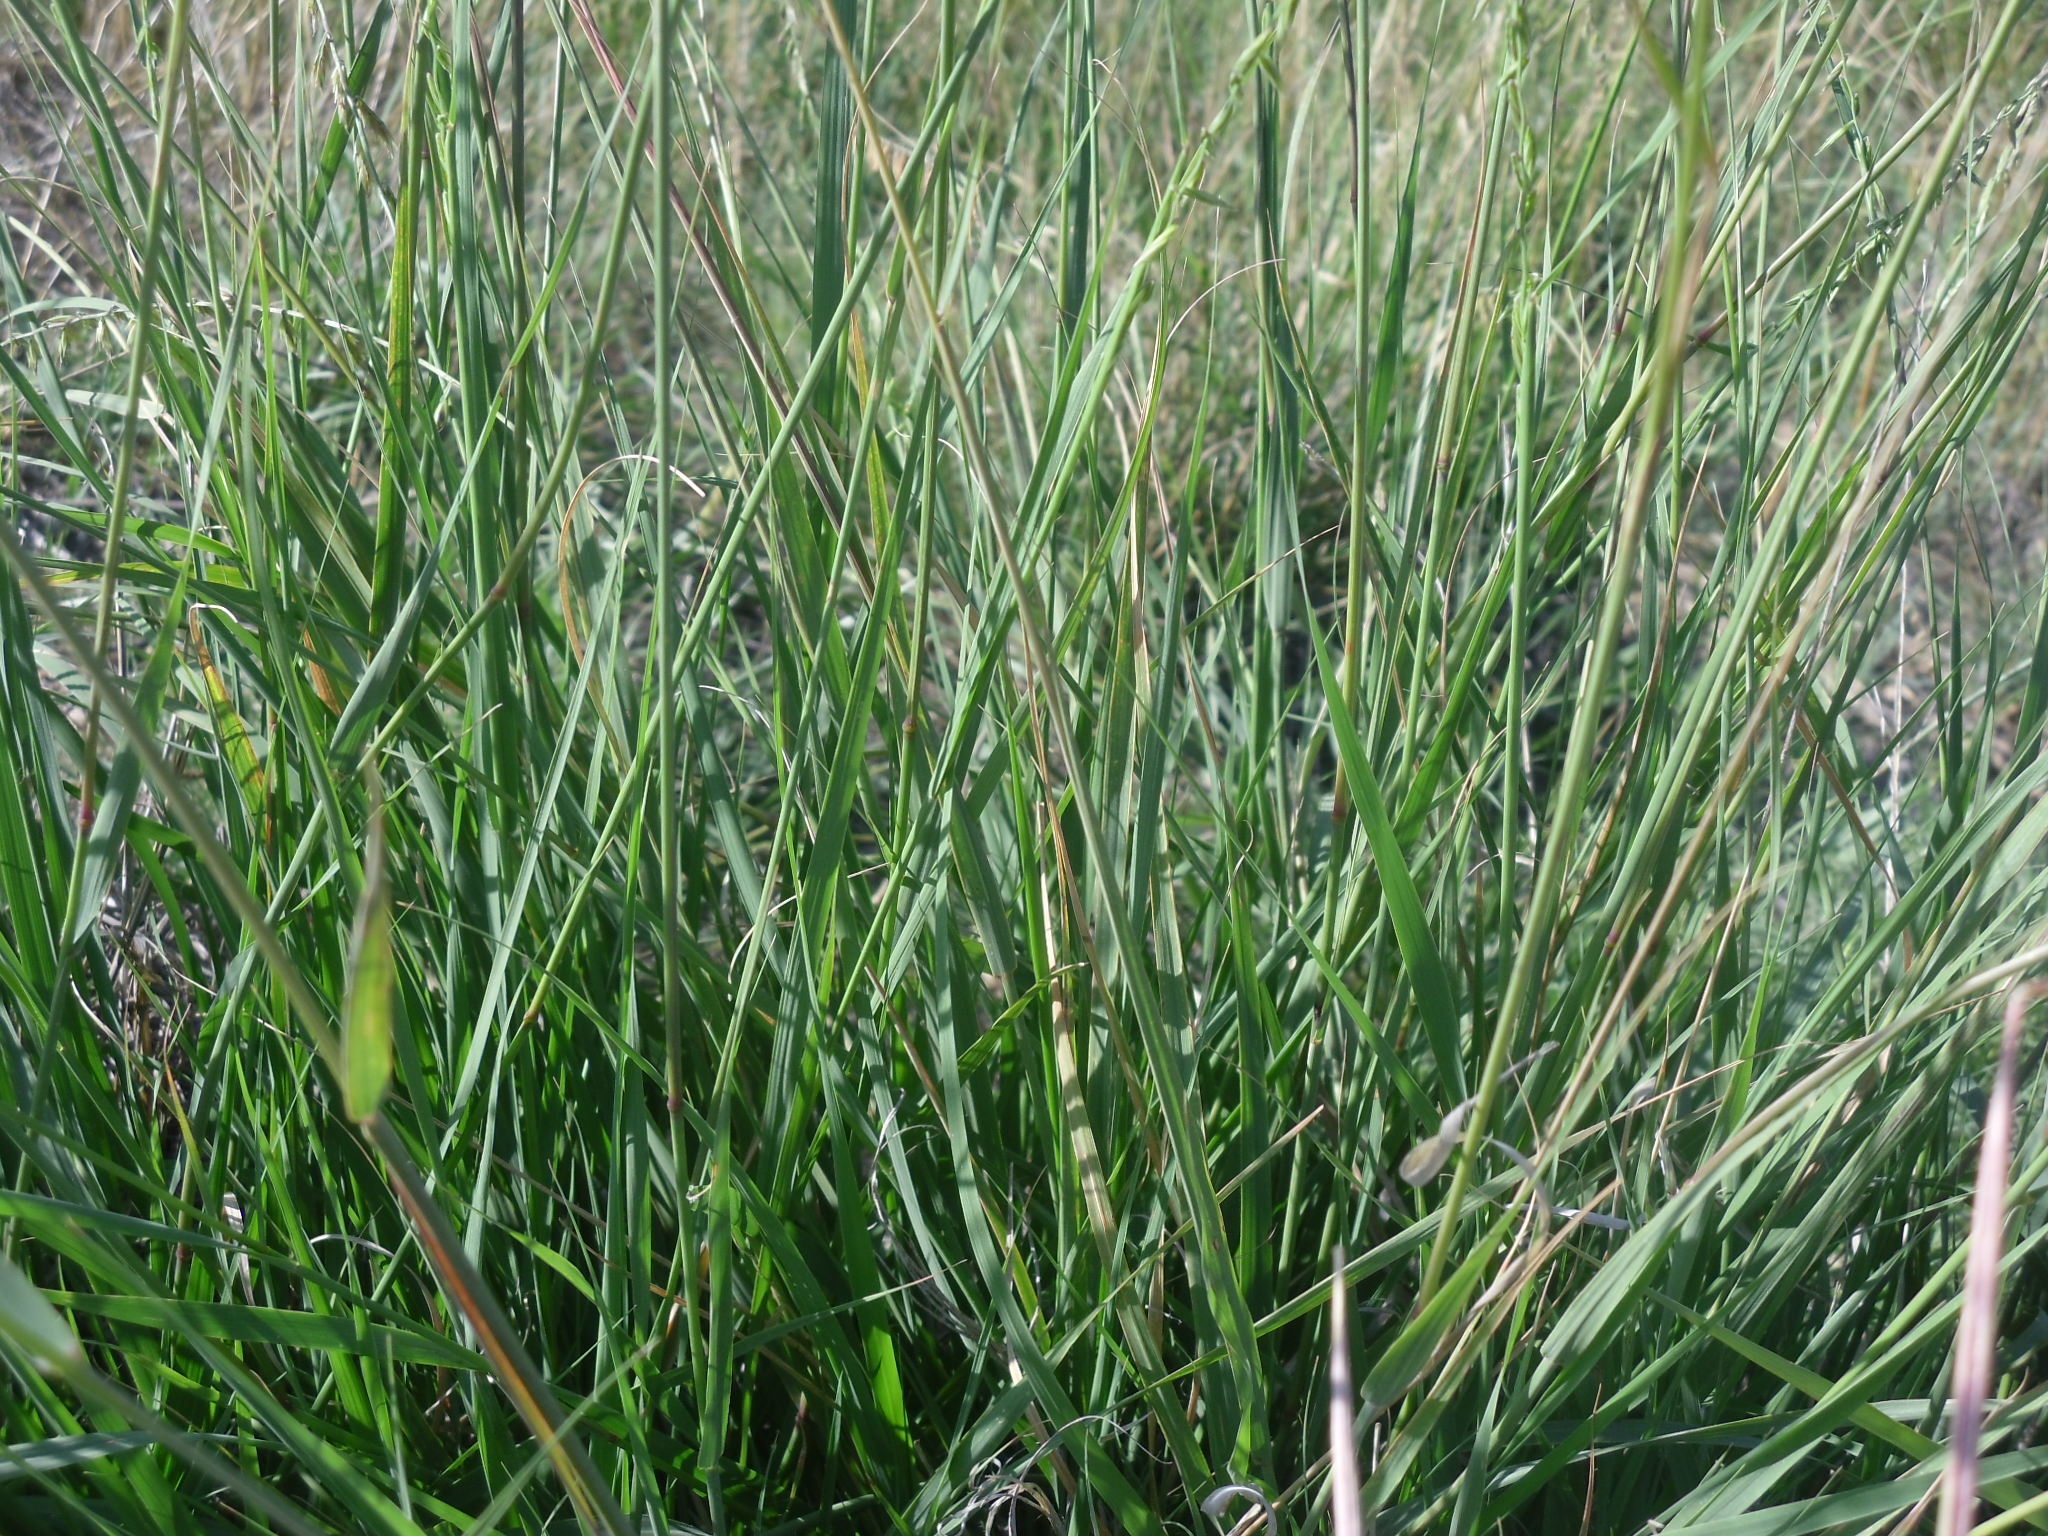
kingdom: Plantae
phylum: Tracheophyta
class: Liliopsida
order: Poales
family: Poaceae
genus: Bouteloua
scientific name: Bouteloua curtipendula
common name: Side-oats grama
